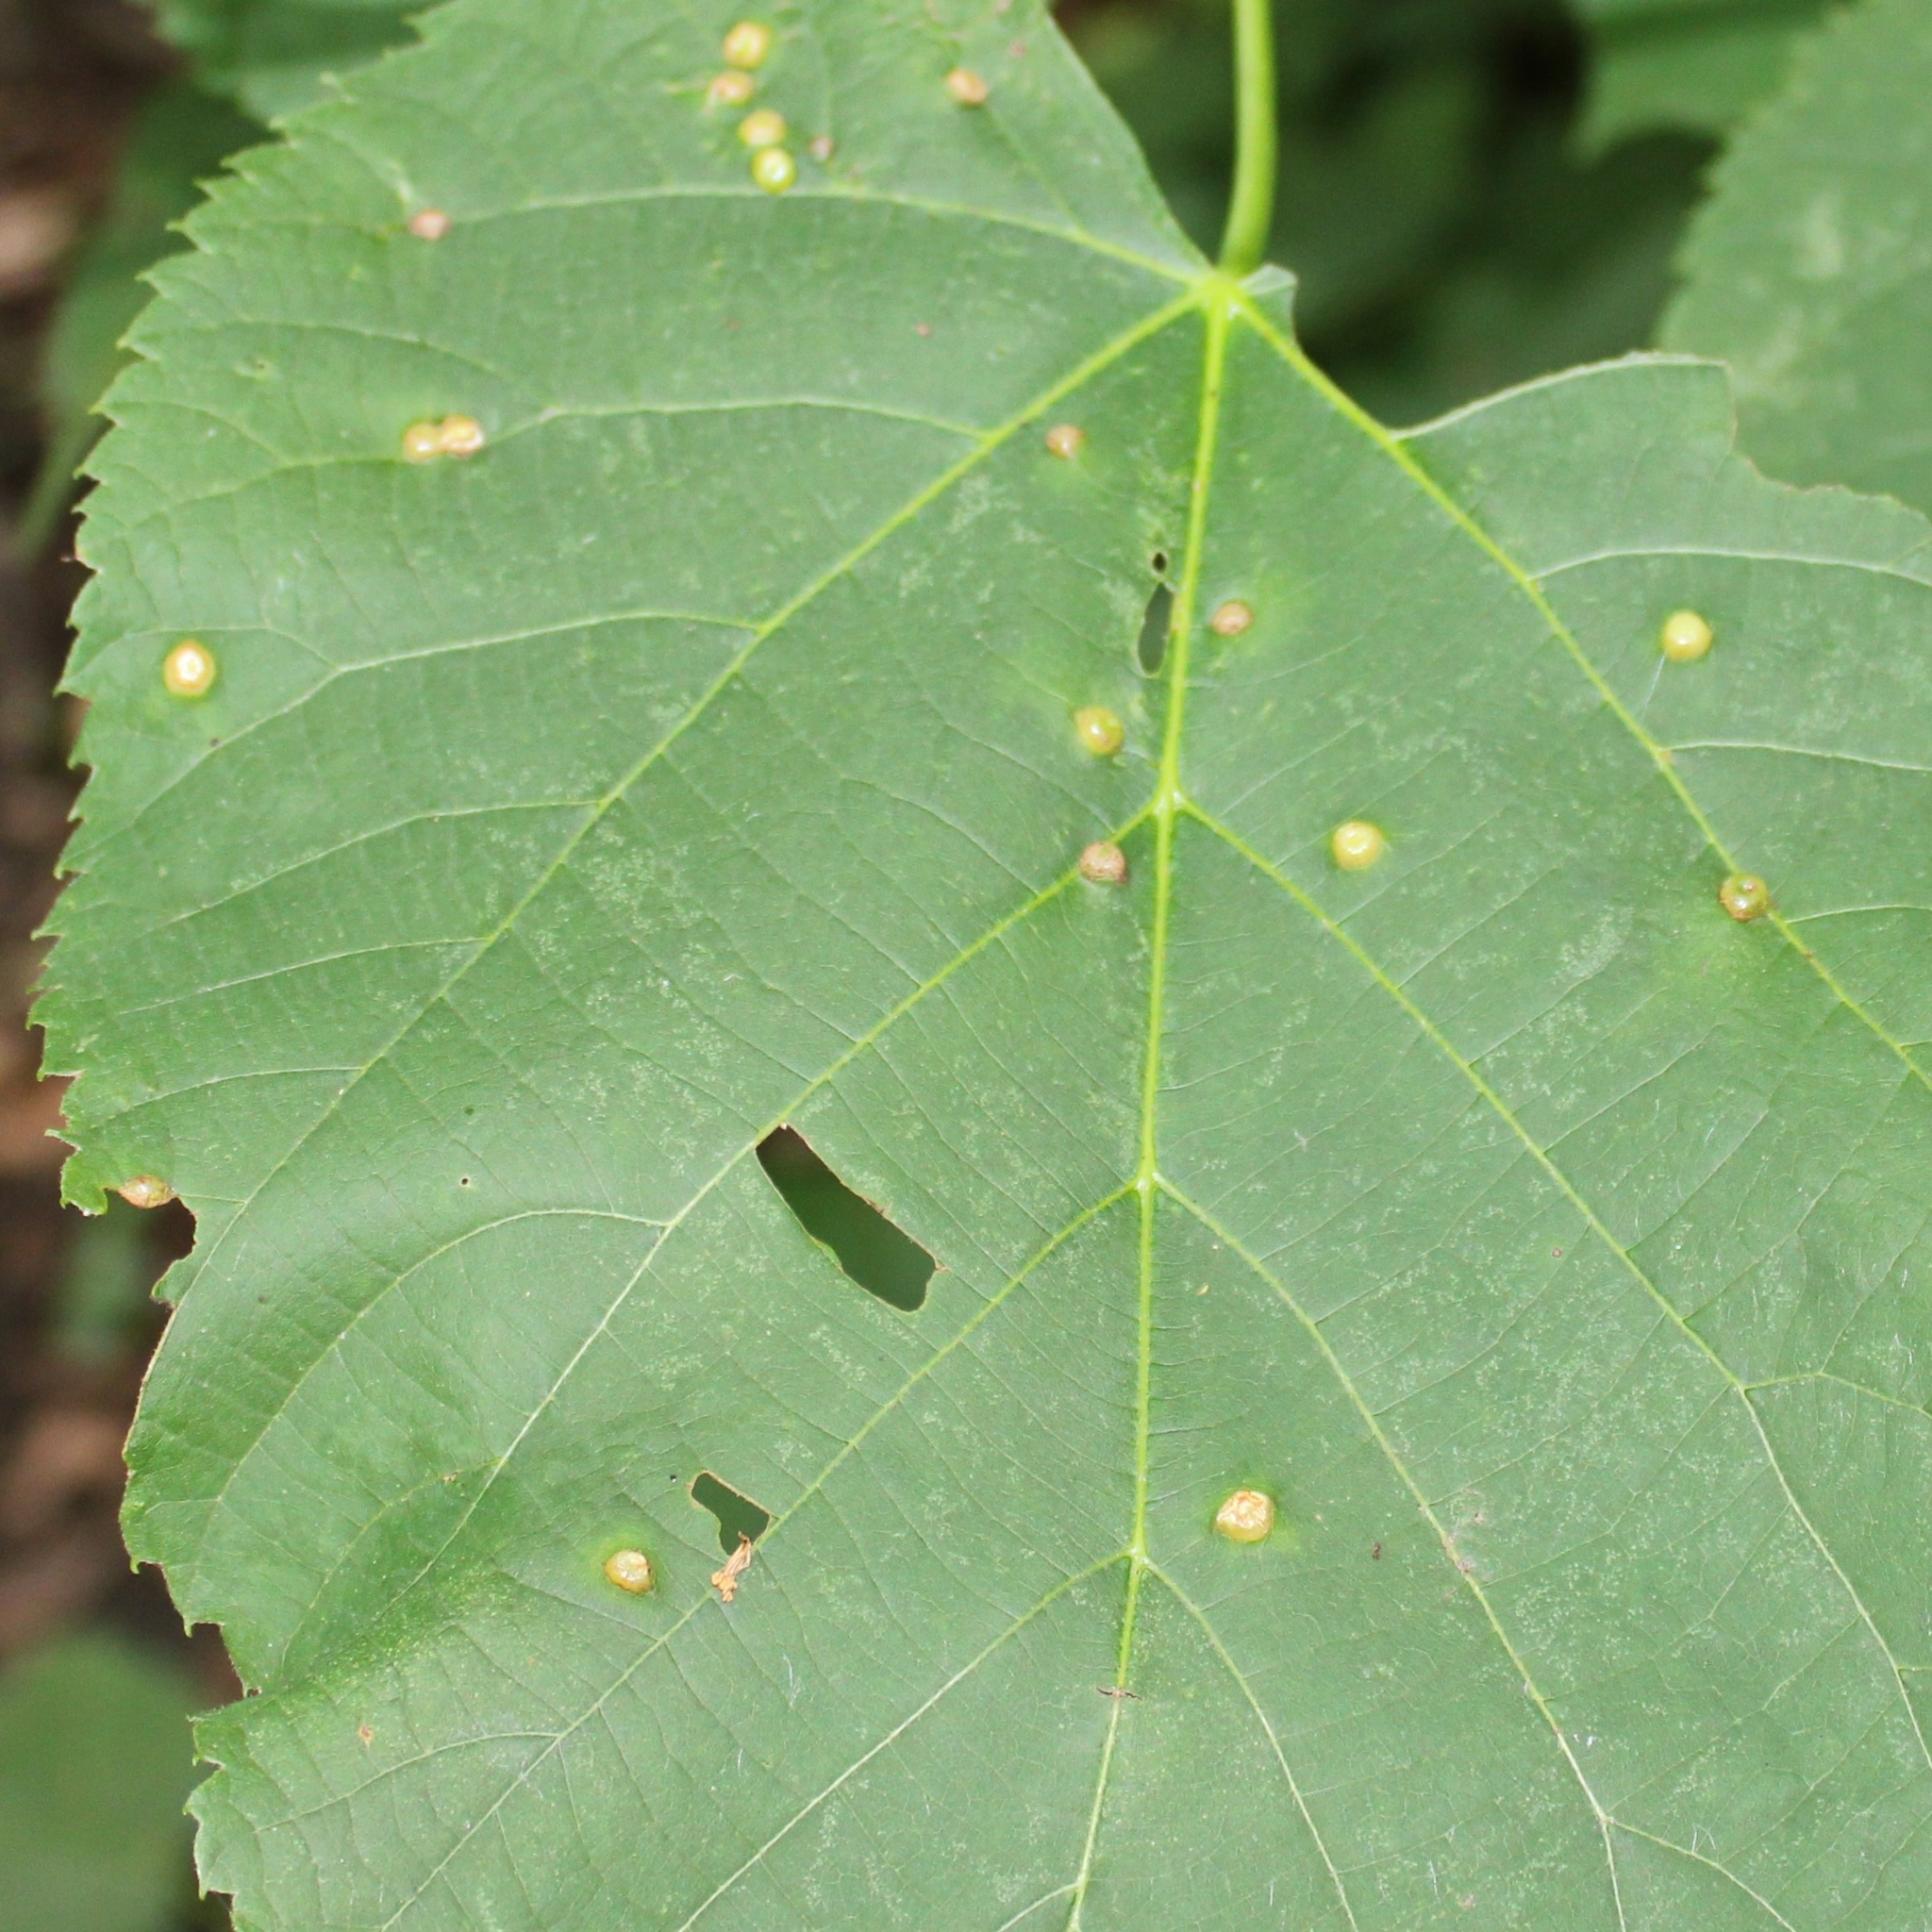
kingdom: Animalia
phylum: Arthropoda
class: Insecta
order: Diptera
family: Cecidomyiidae
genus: Contarinia
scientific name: Contarinia verrucicola
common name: Linden wart gall midge
